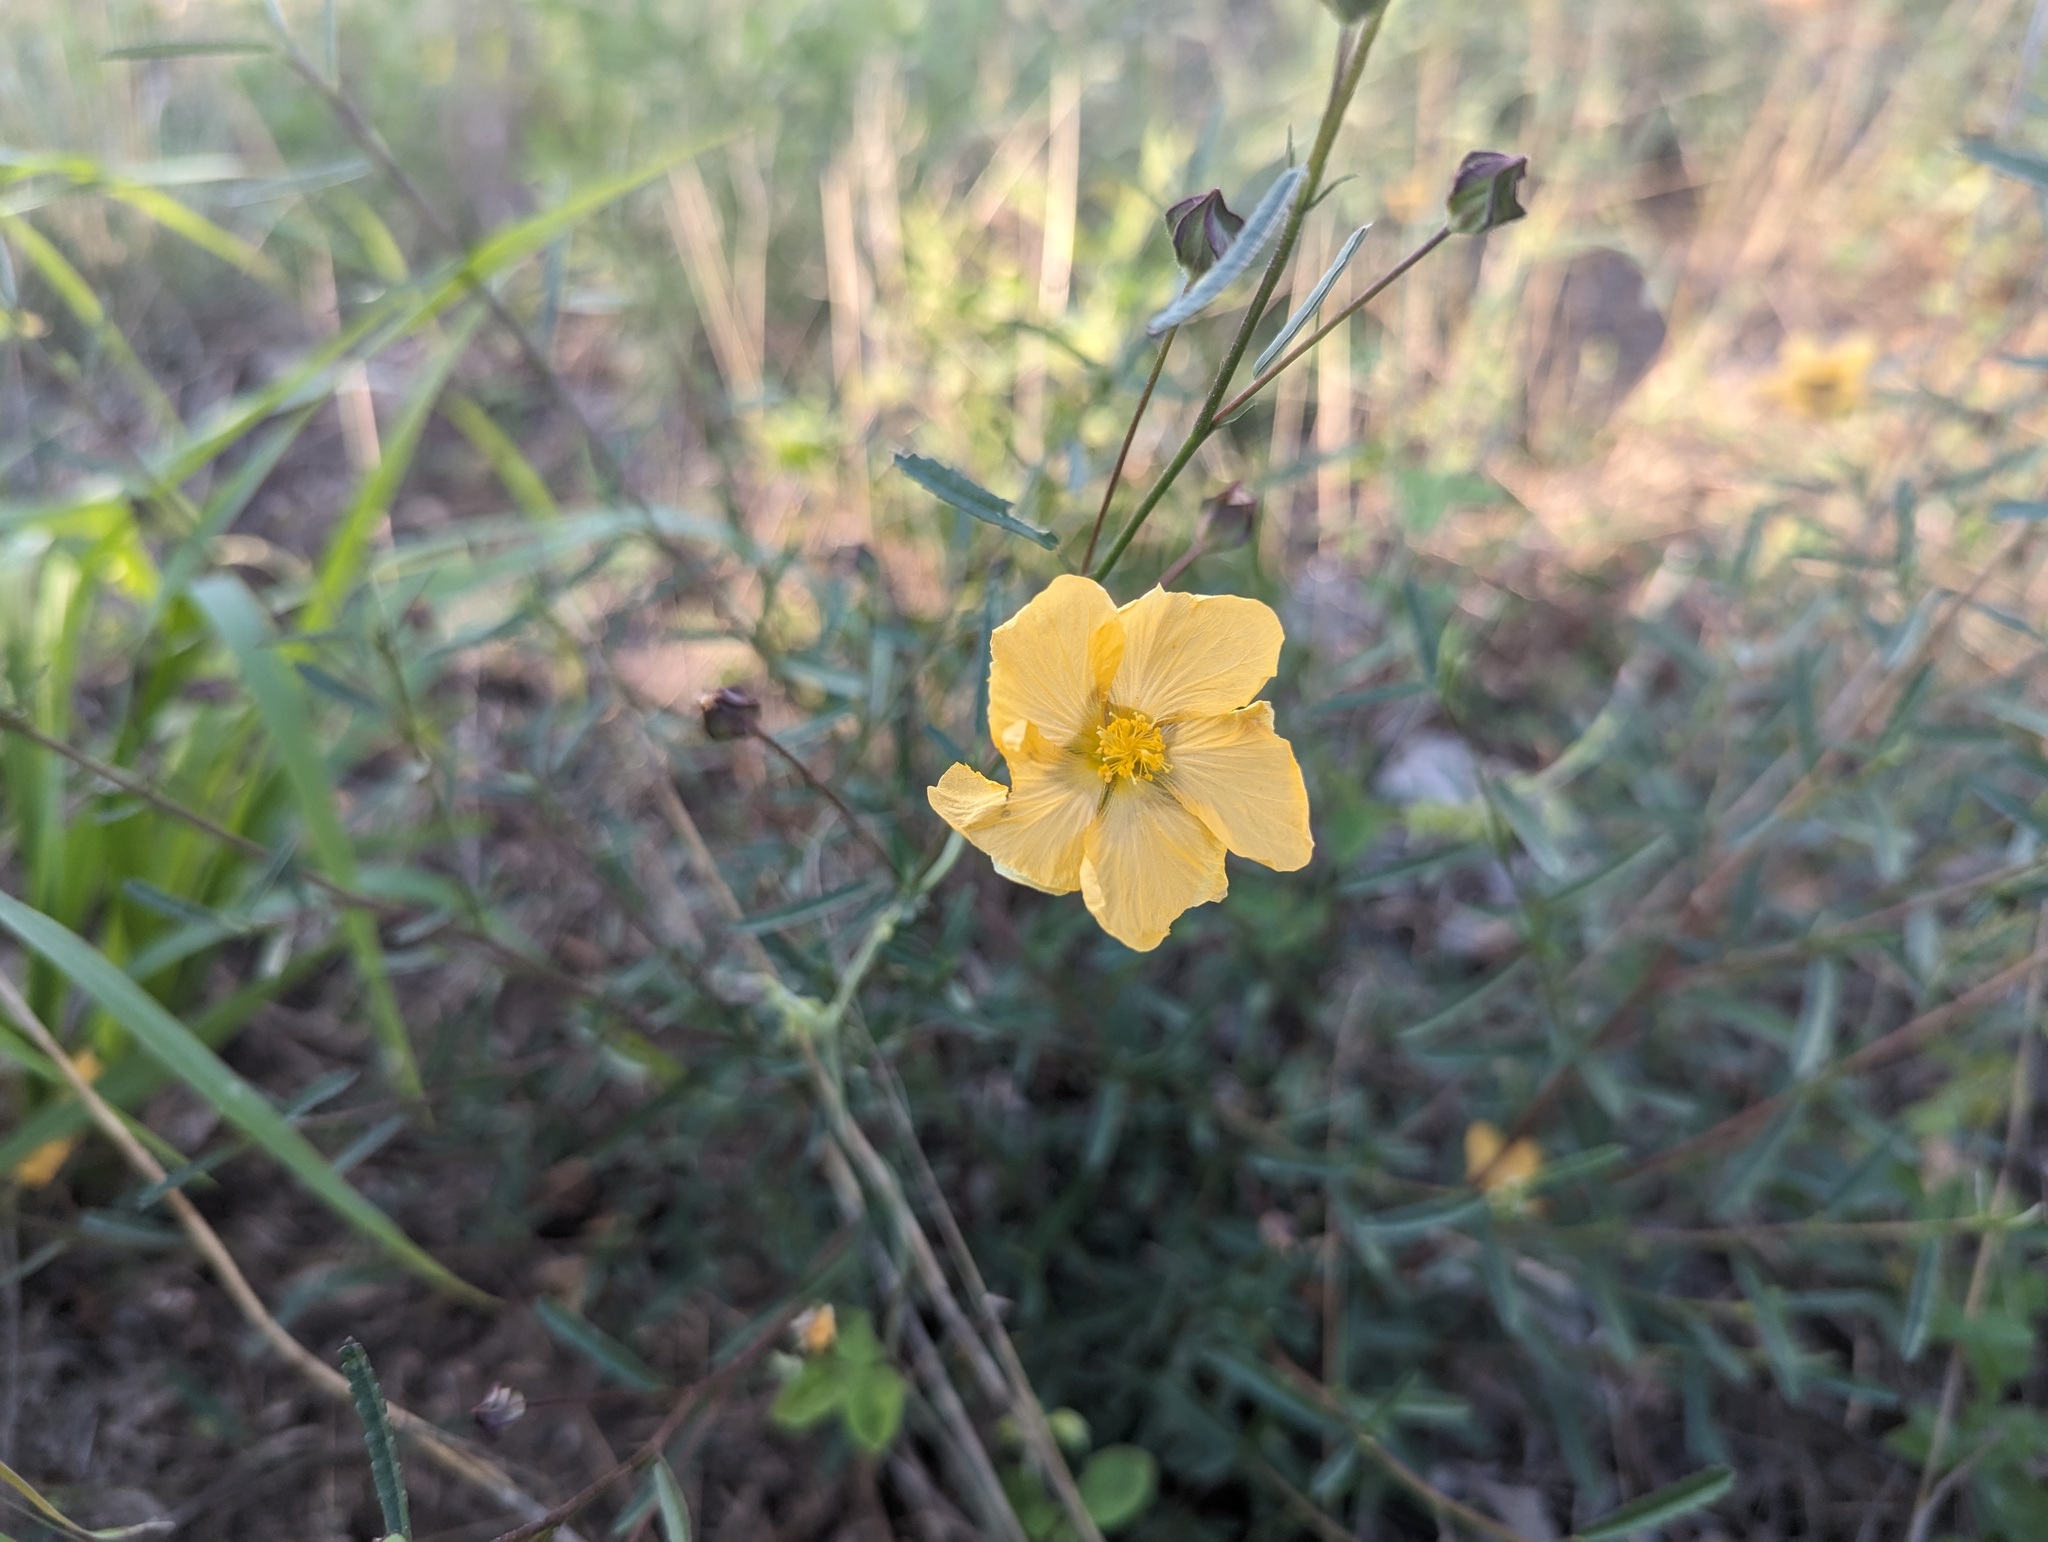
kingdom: Plantae
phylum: Tracheophyta
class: Magnoliopsida
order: Malvales
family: Malvaceae
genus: Sida
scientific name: Sida elliottii
